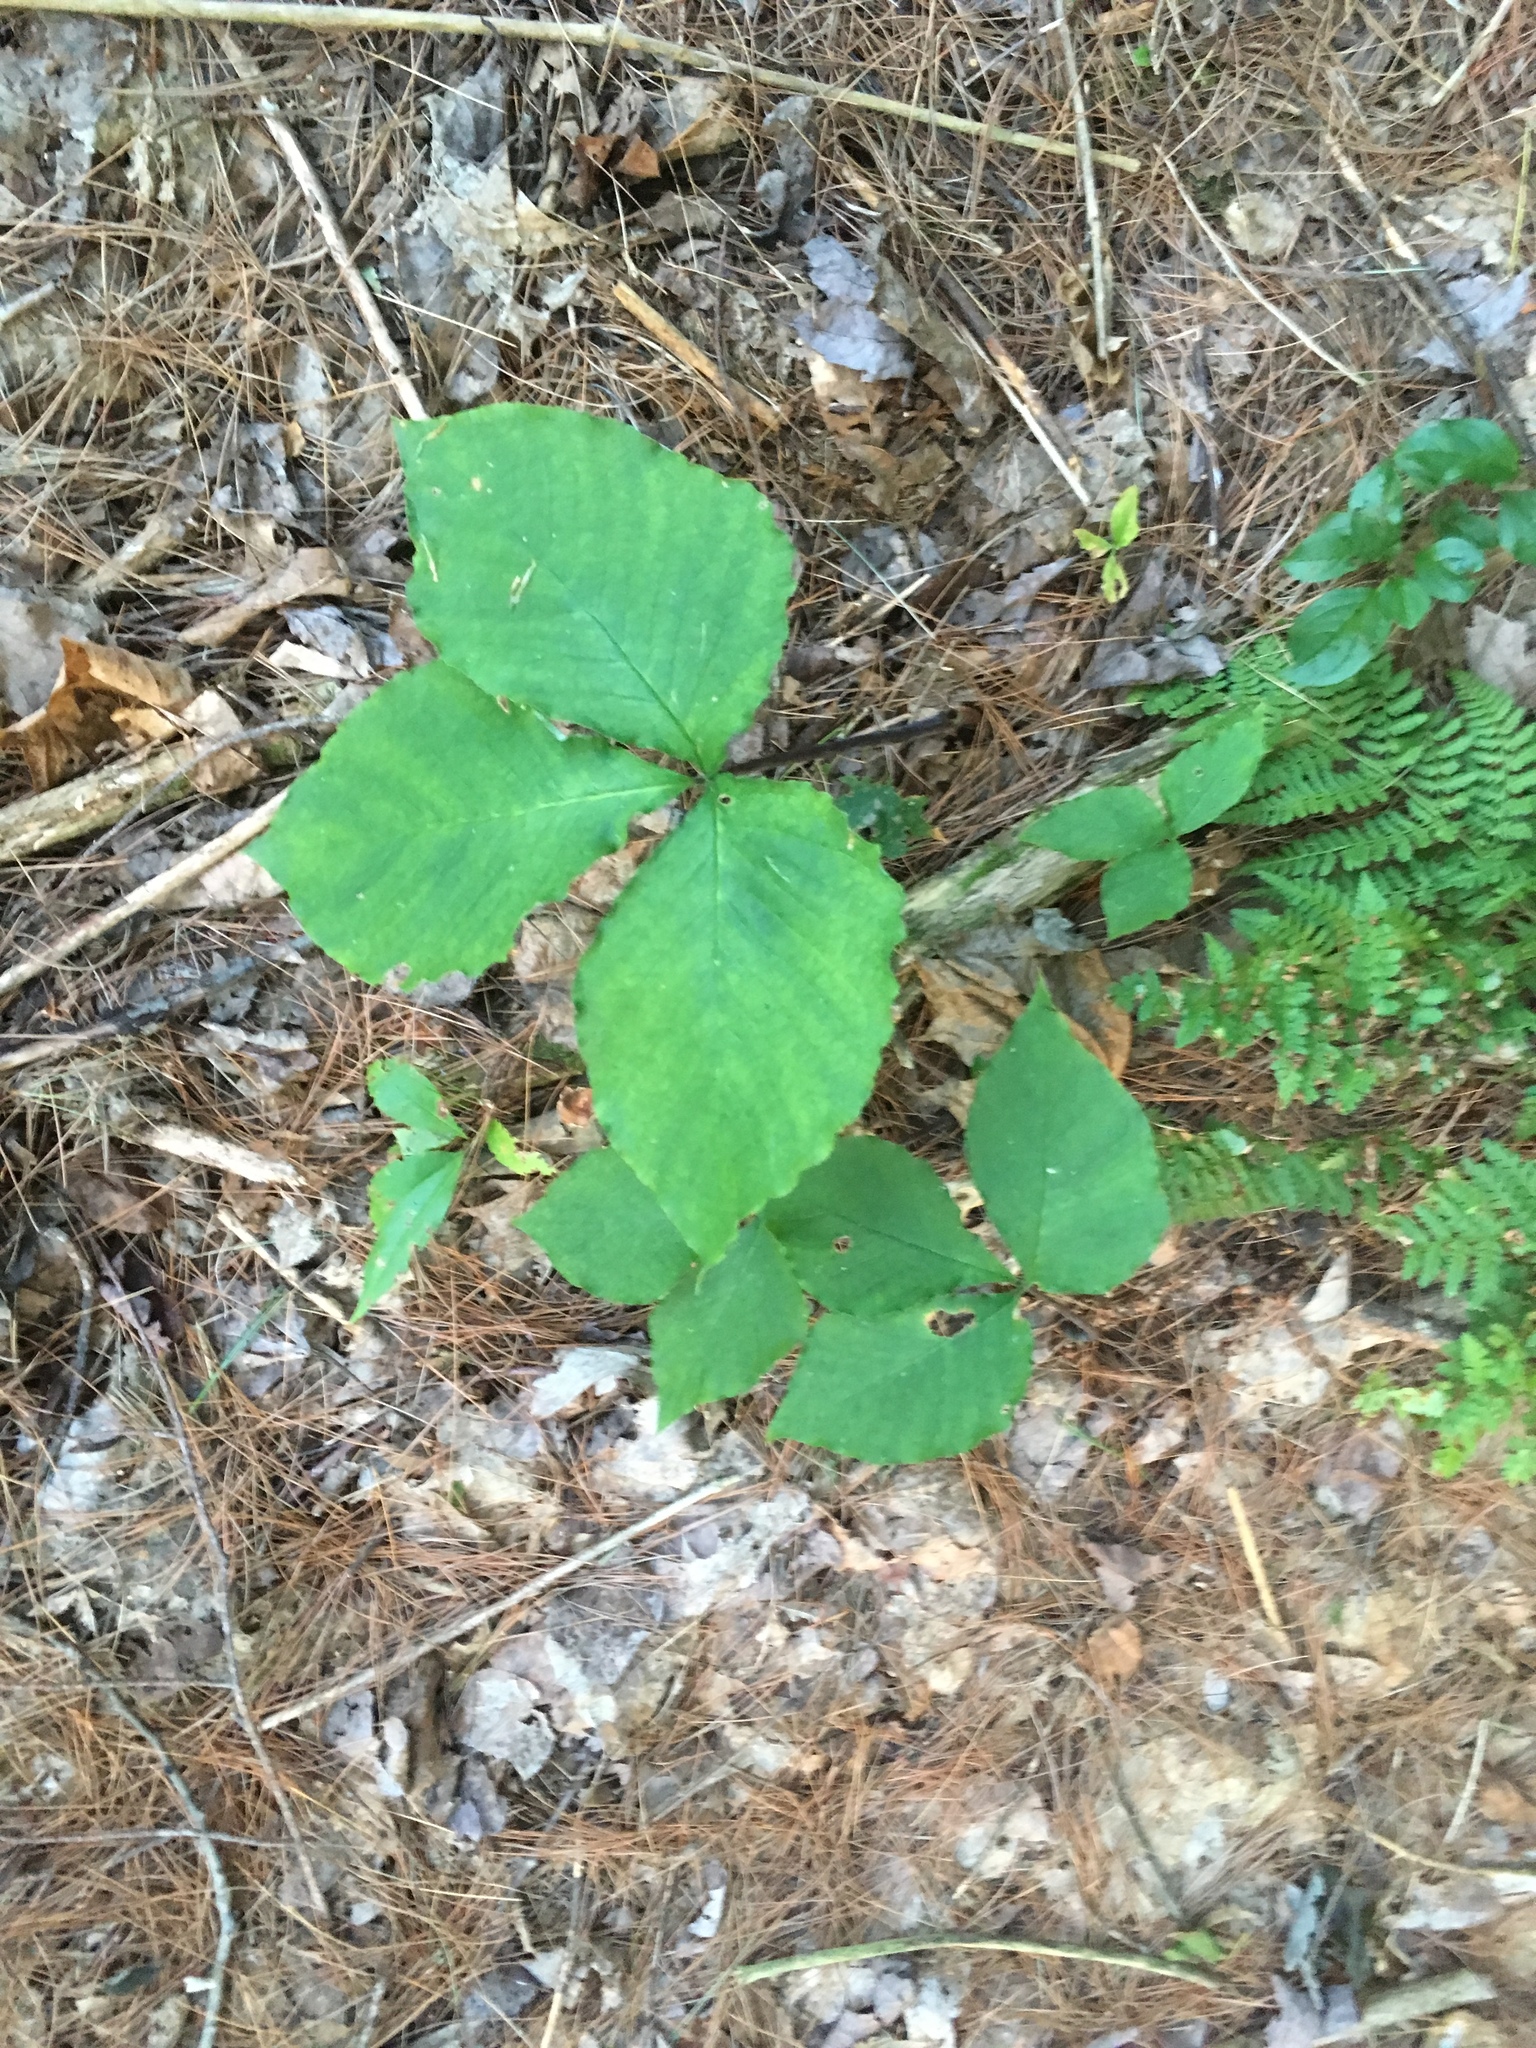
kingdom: Plantae
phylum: Tracheophyta
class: Liliopsida
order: Alismatales
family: Araceae
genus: Arisaema
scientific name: Arisaema triphyllum
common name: Jack-in-the-pulpit
